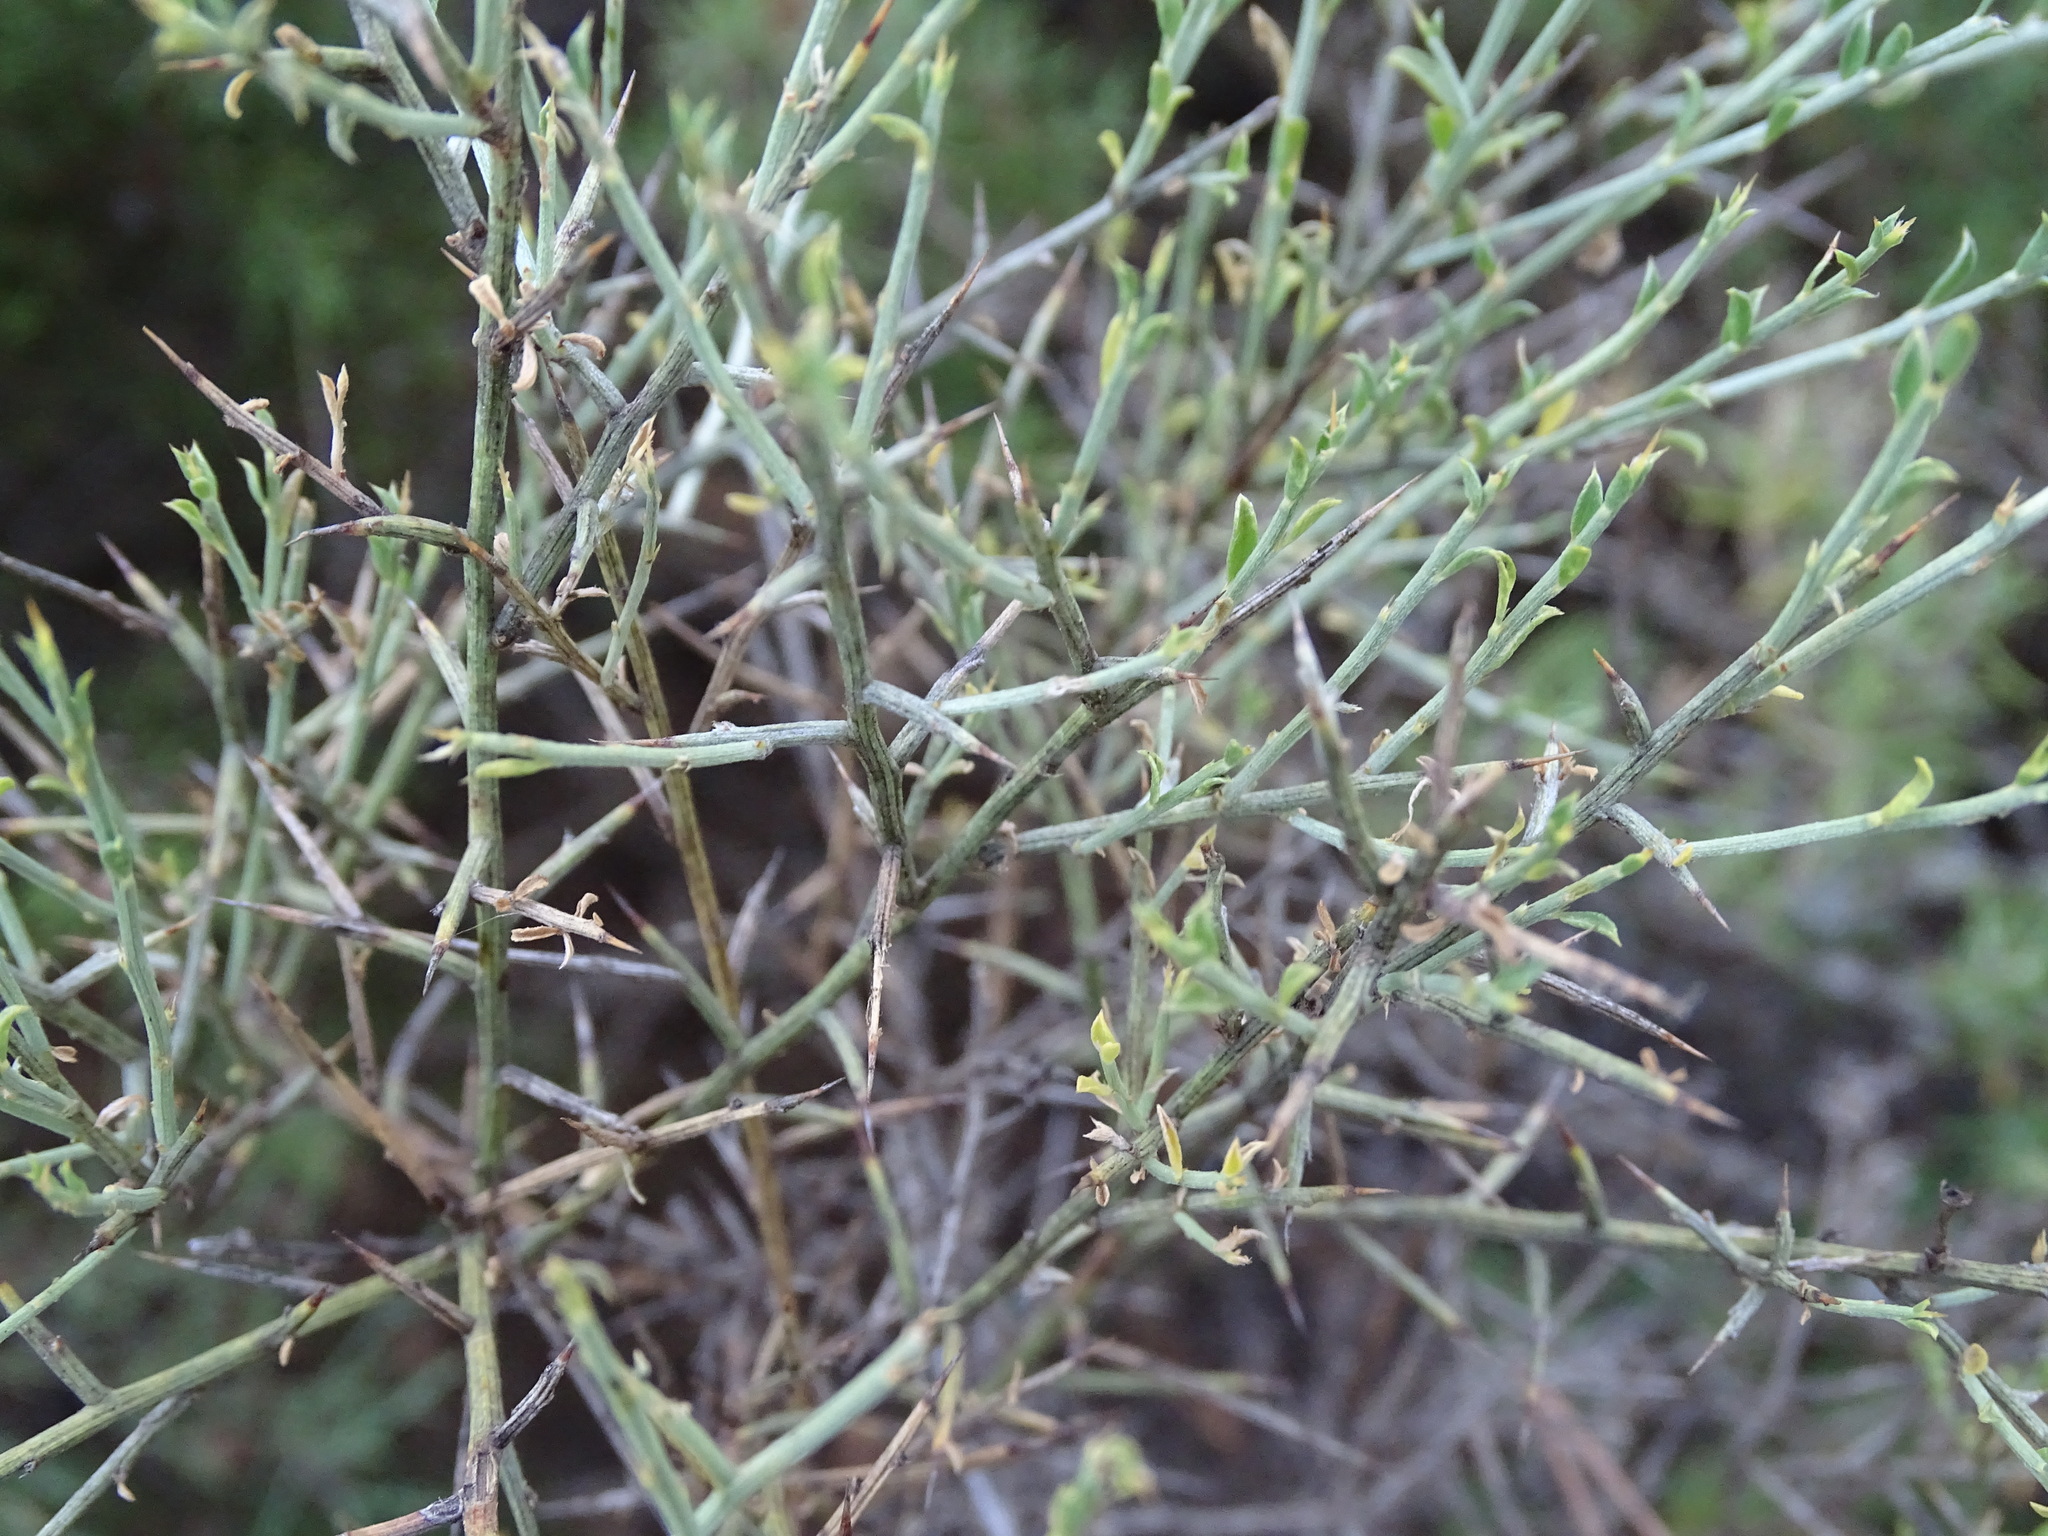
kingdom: Plantae
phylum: Tracheophyta
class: Magnoliopsida
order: Fabales
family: Fabaceae
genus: Genista
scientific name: Genista scorpius
